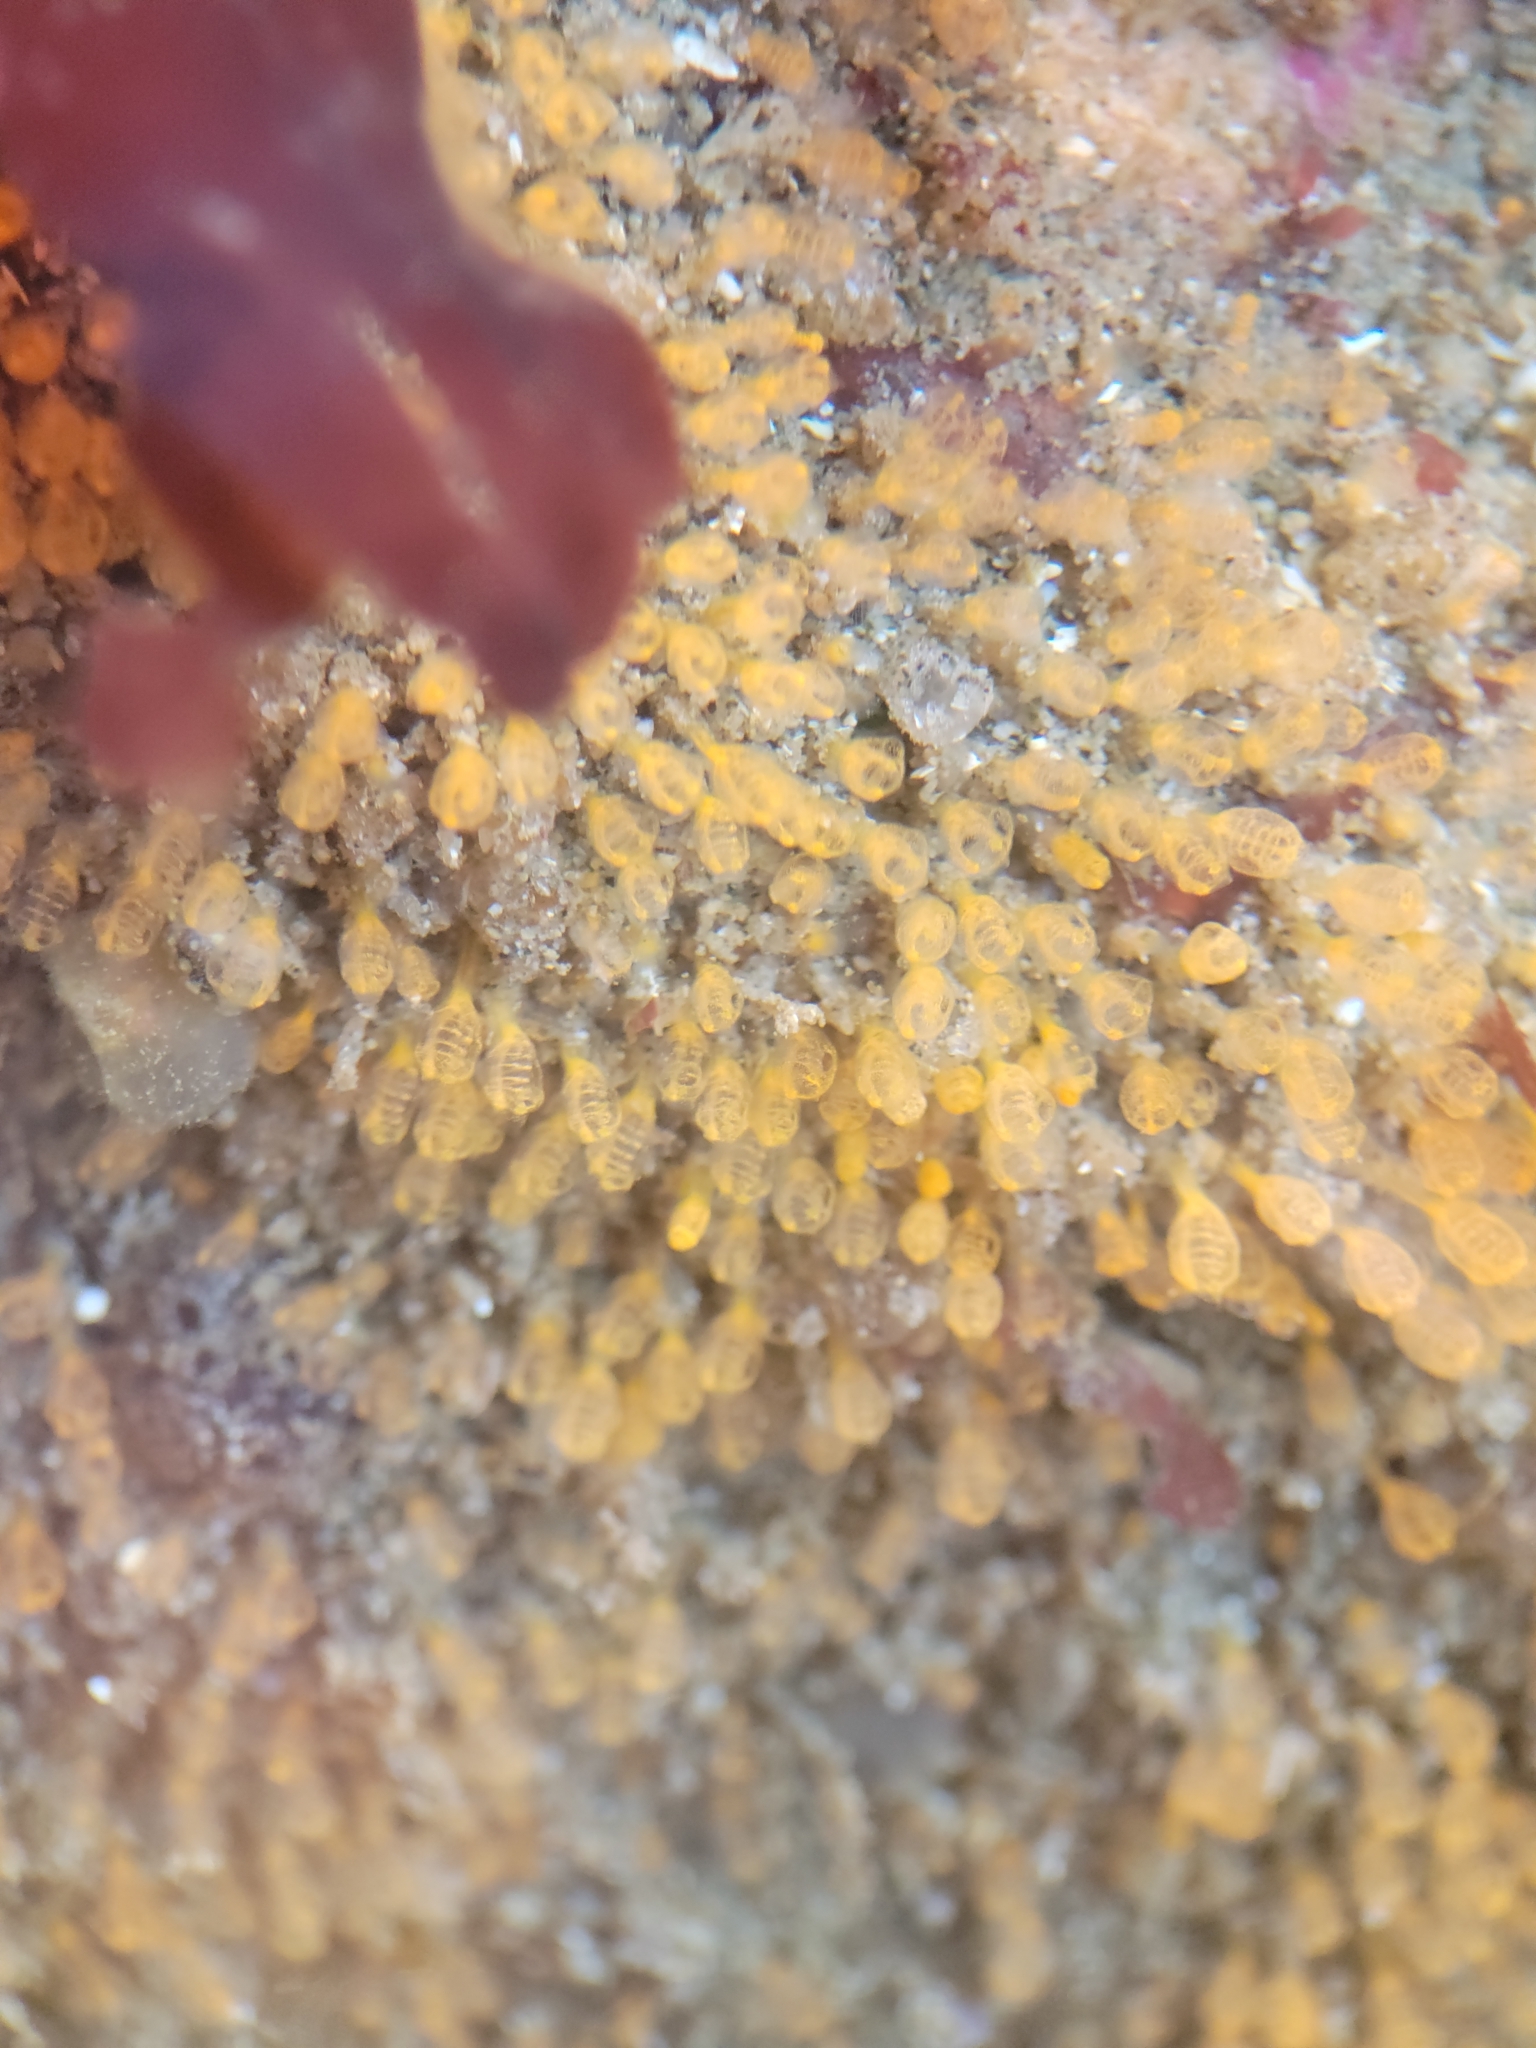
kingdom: Animalia
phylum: Chordata
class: Ascidiacea
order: Aplousobranchia
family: Clavelinidae
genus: Pycnoclavella
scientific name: Pycnoclavella stanleyi
